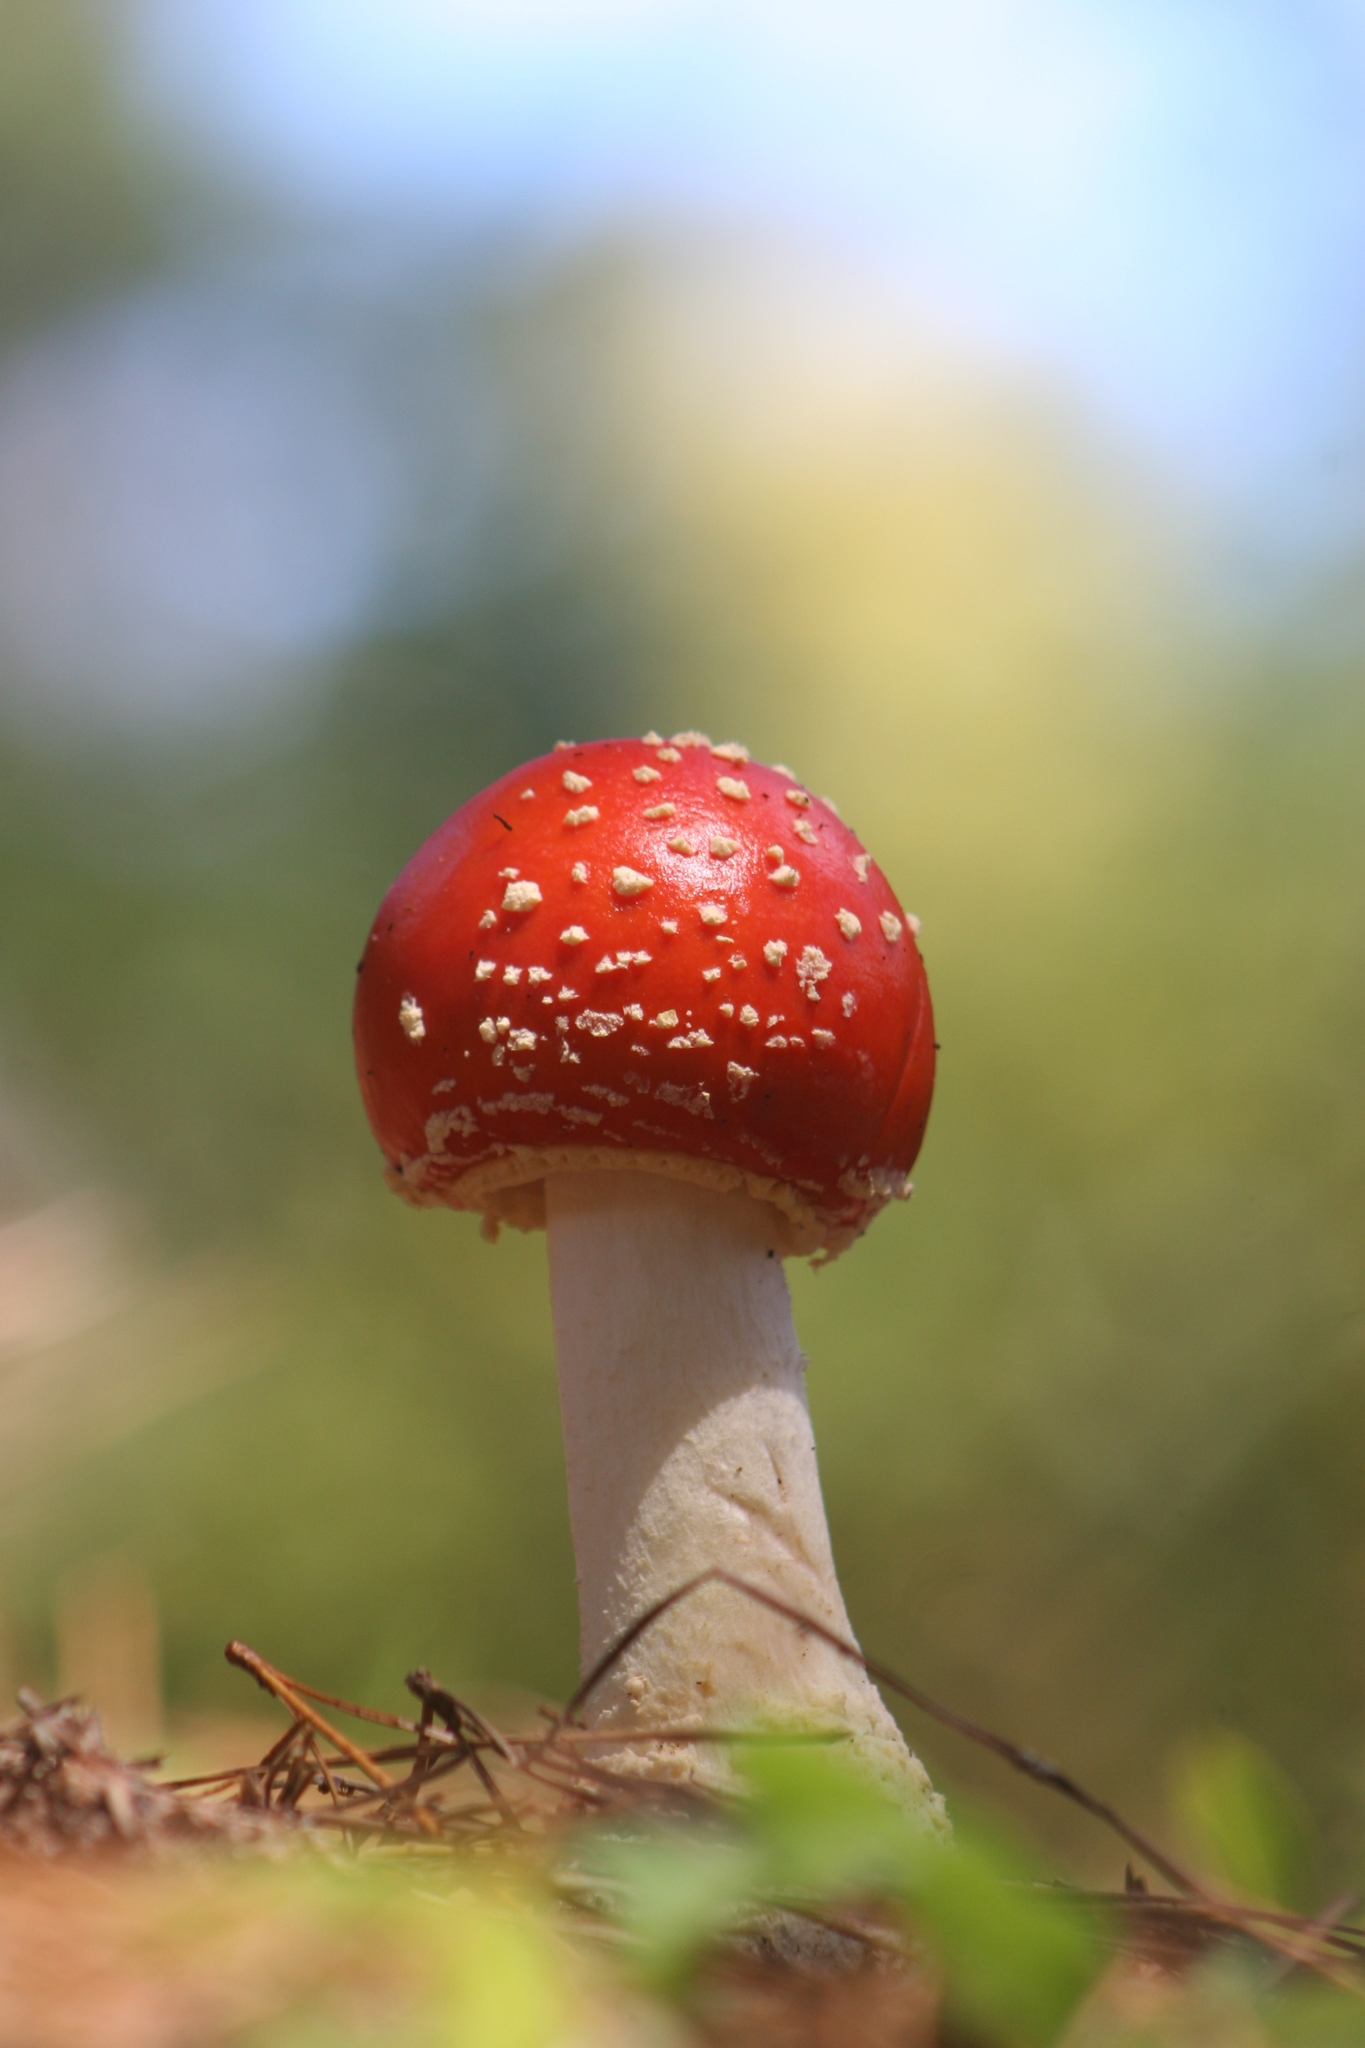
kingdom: Fungi
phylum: Basidiomycota
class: Agaricomycetes
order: Agaricales
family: Amanitaceae
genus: Amanita
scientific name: Amanita muscaria
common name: Fly agaric
